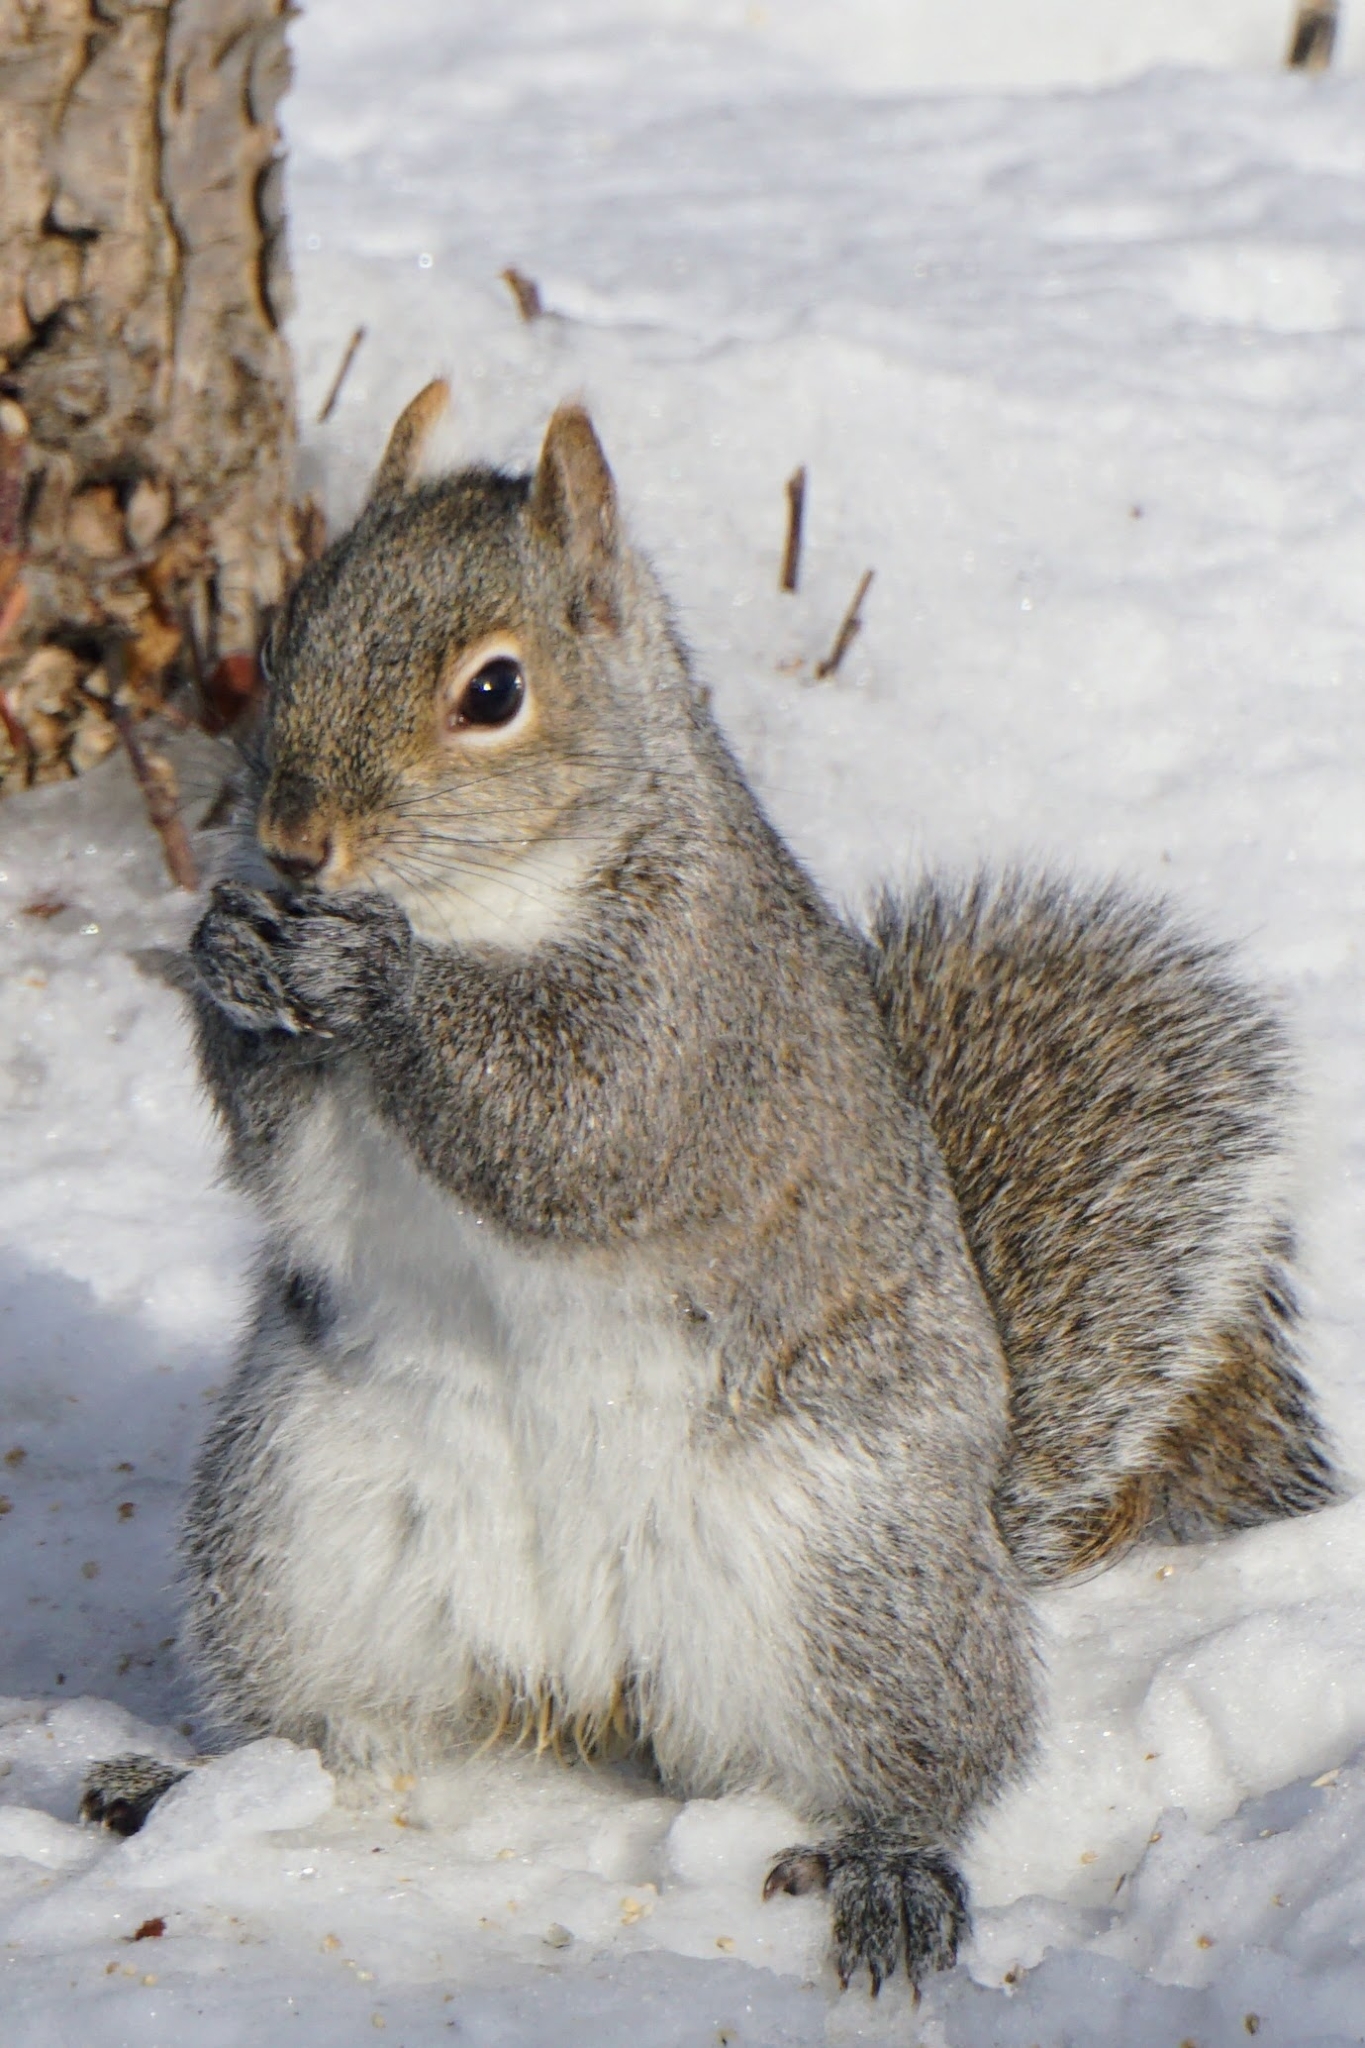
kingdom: Animalia
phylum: Chordata
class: Mammalia
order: Rodentia
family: Sciuridae
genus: Sciurus
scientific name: Sciurus carolinensis
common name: Eastern gray squirrel
